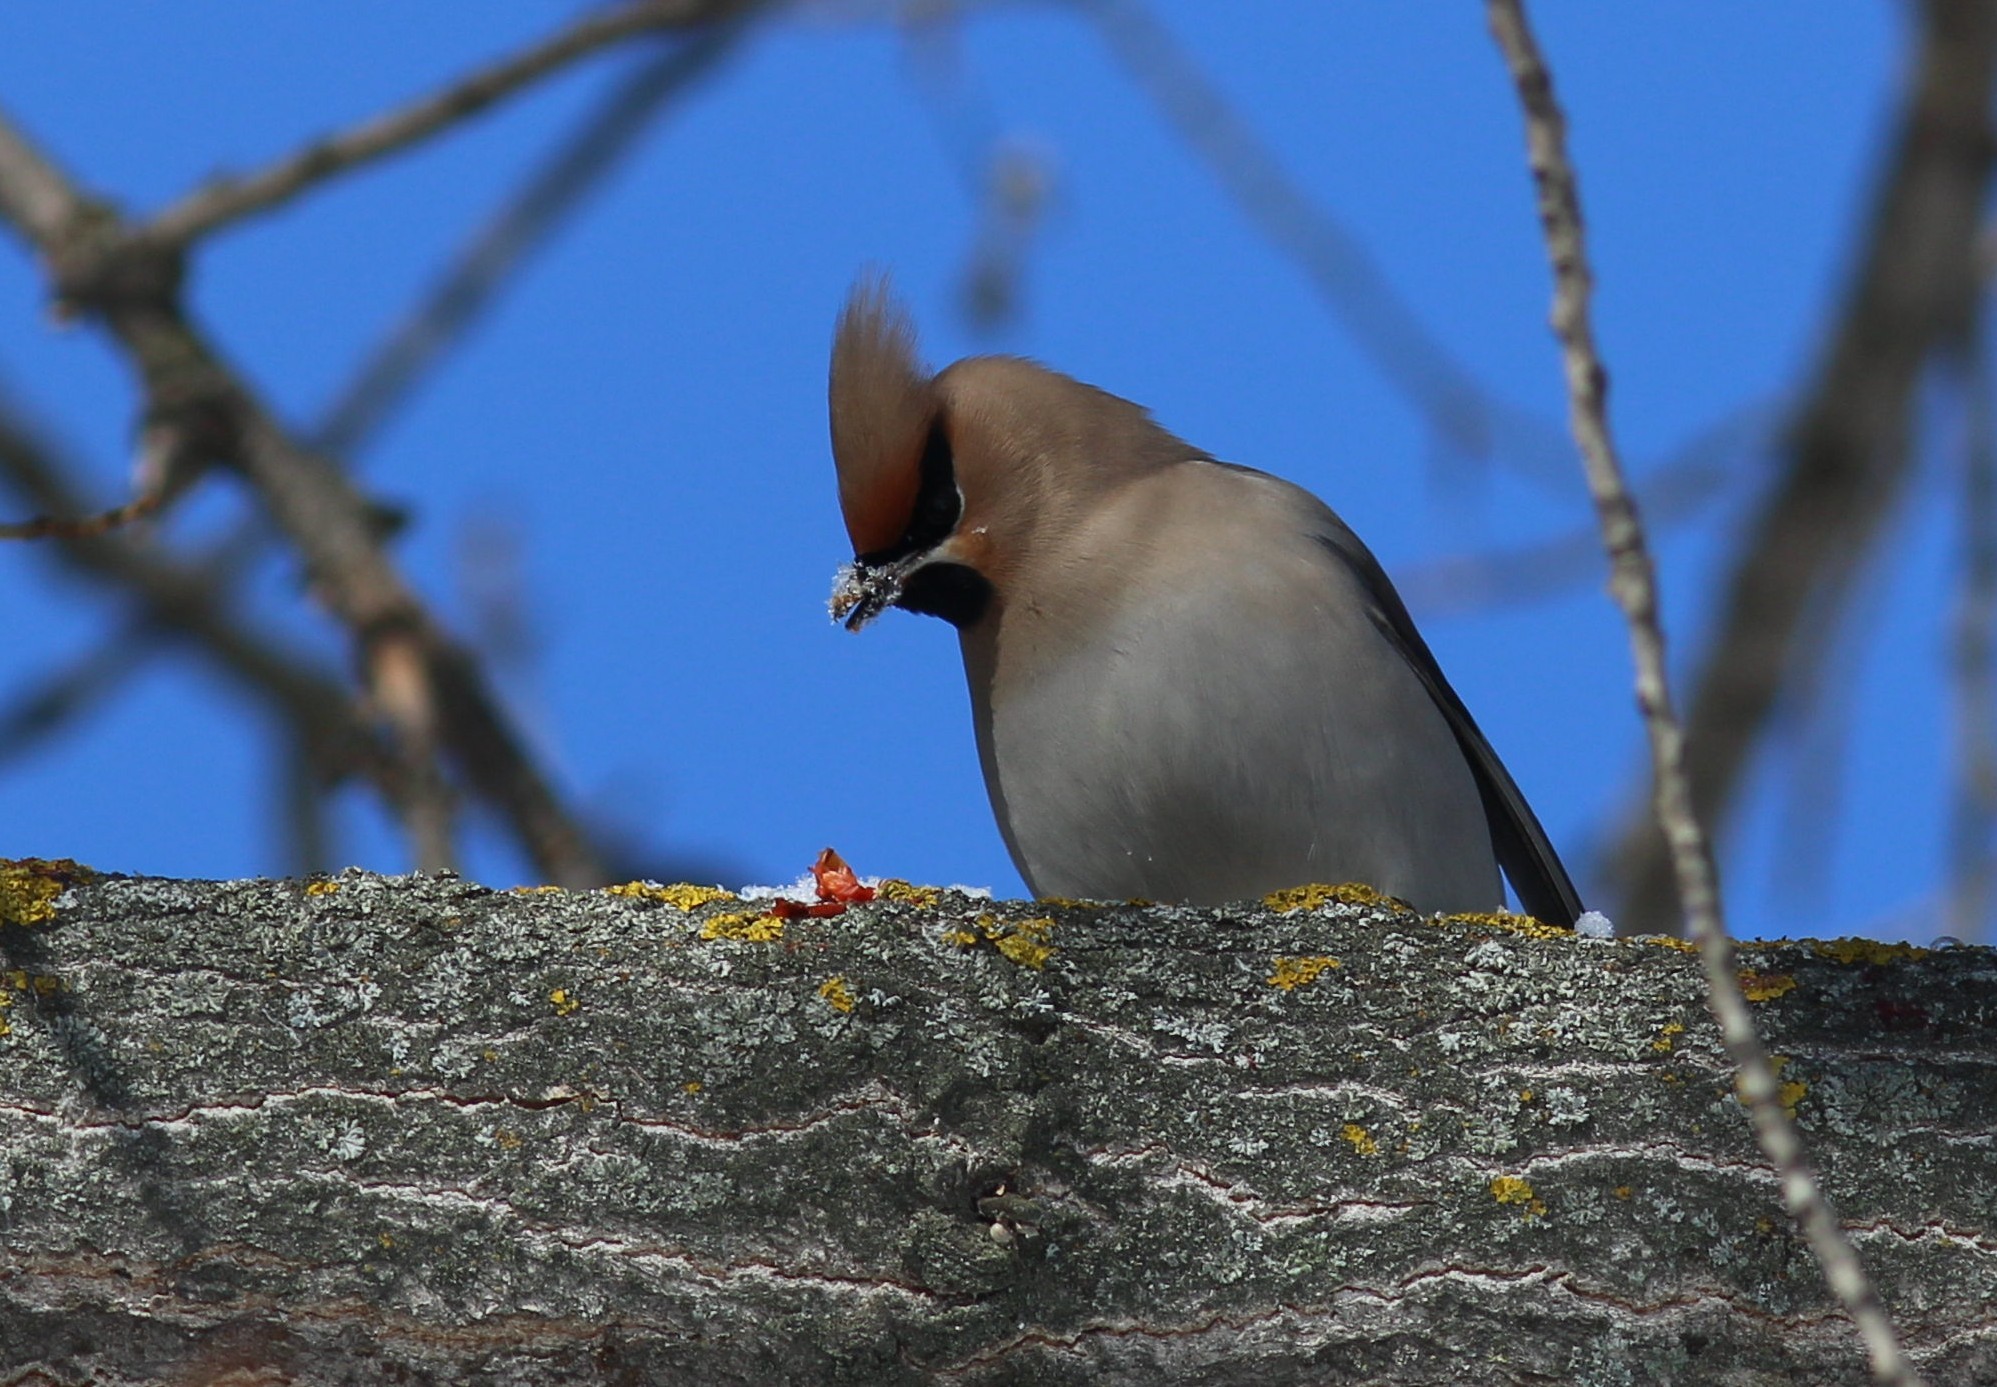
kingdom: Animalia
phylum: Chordata
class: Aves
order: Passeriformes
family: Bombycillidae
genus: Bombycilla
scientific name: Bombycilla garrulus
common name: Bohemian waxwing
